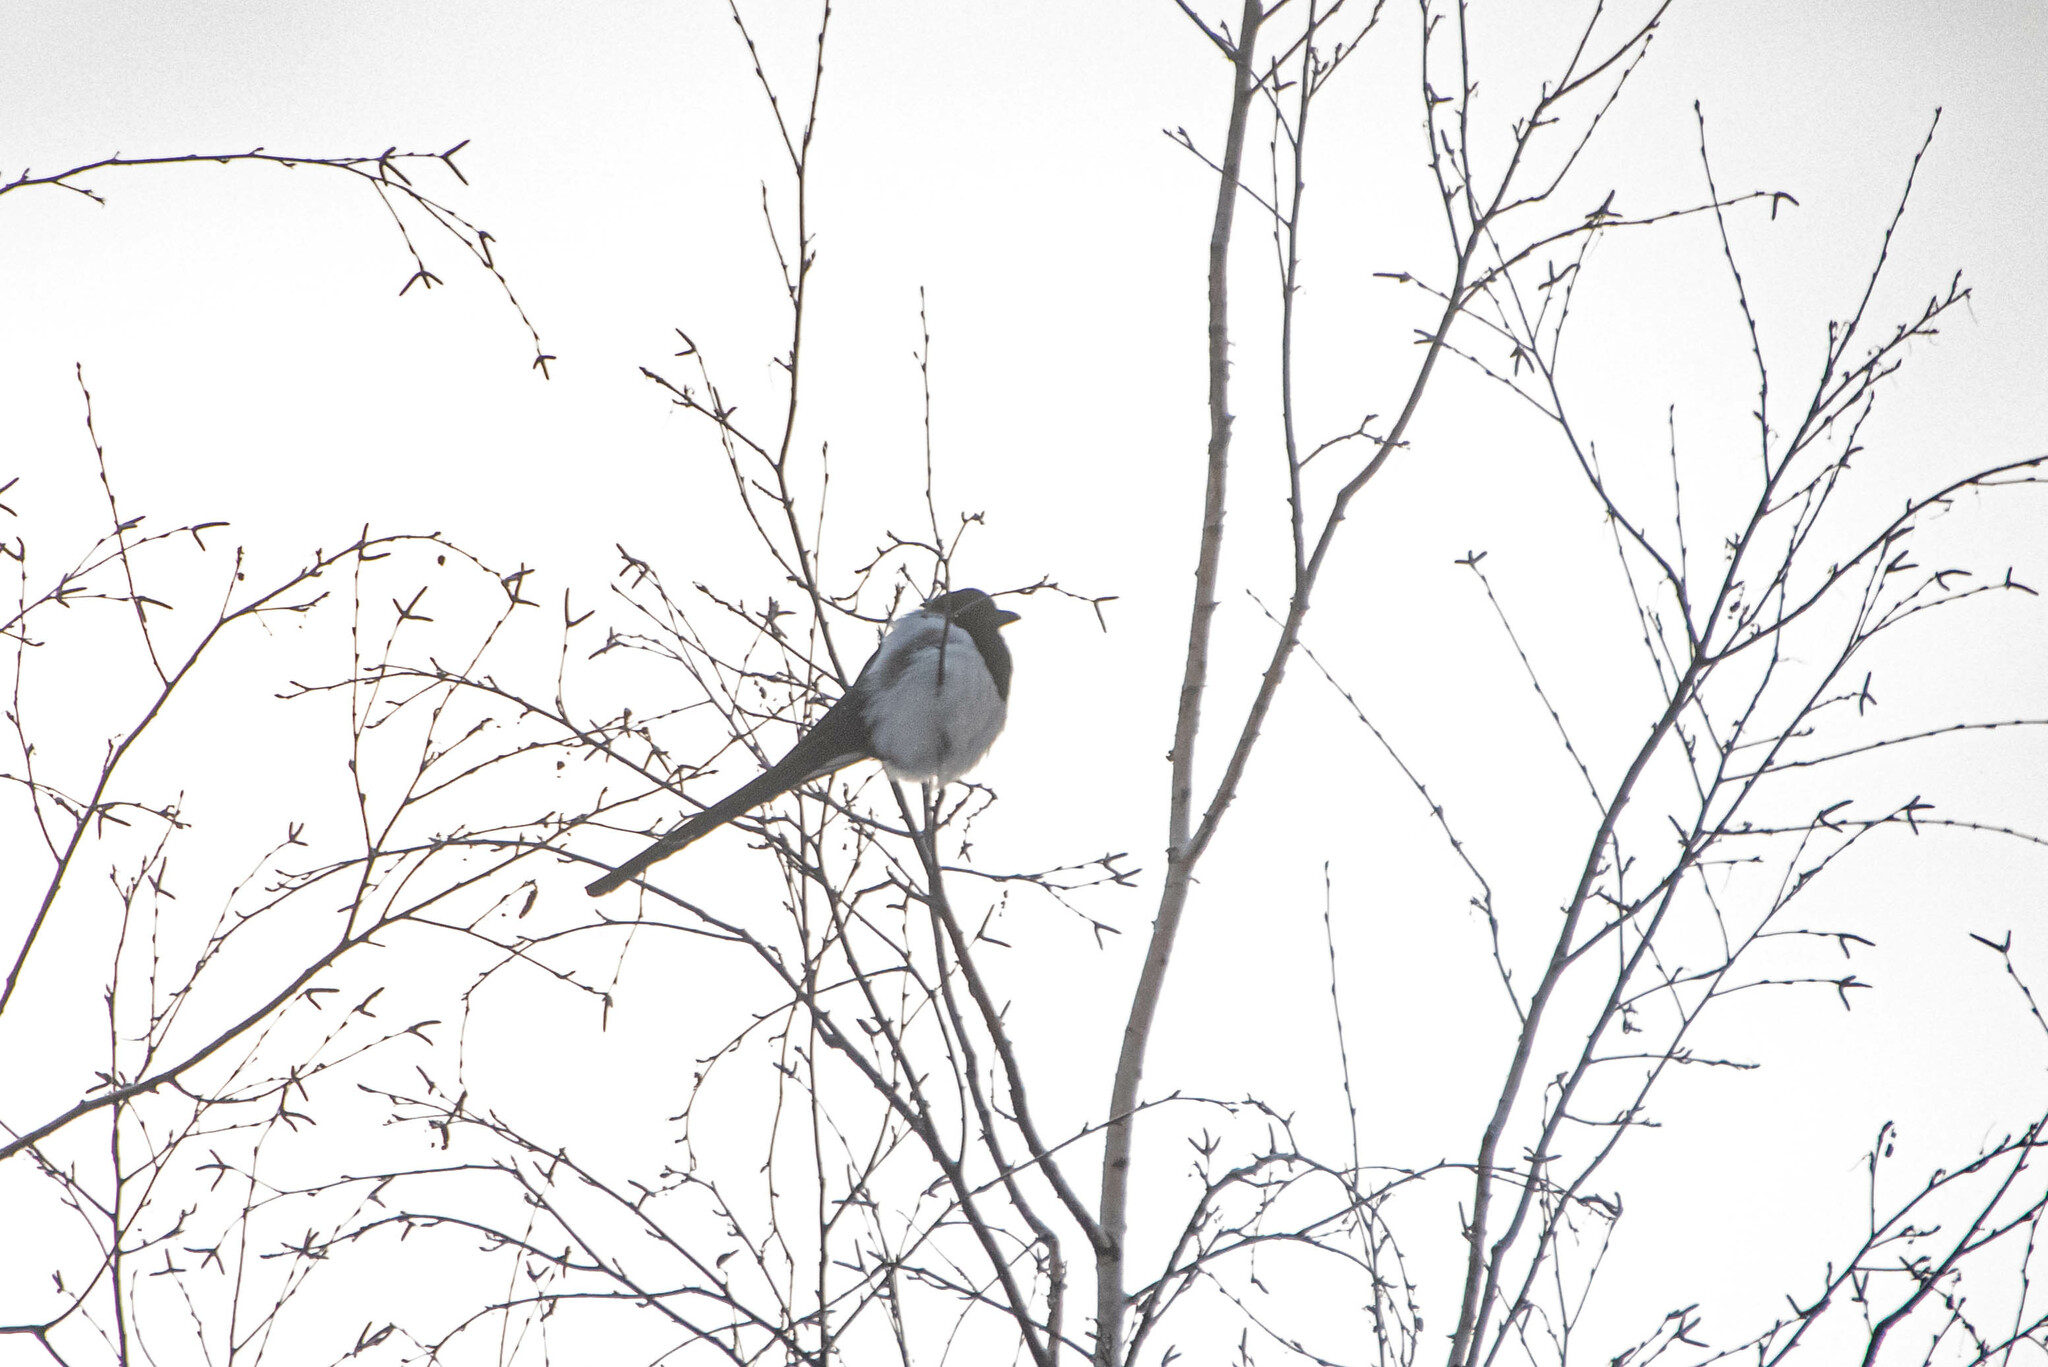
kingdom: Animalia
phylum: Chordata
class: Aves
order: Passeriformes
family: Corvidae
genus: Pica
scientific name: Pica pica
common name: Eurasian magpie
